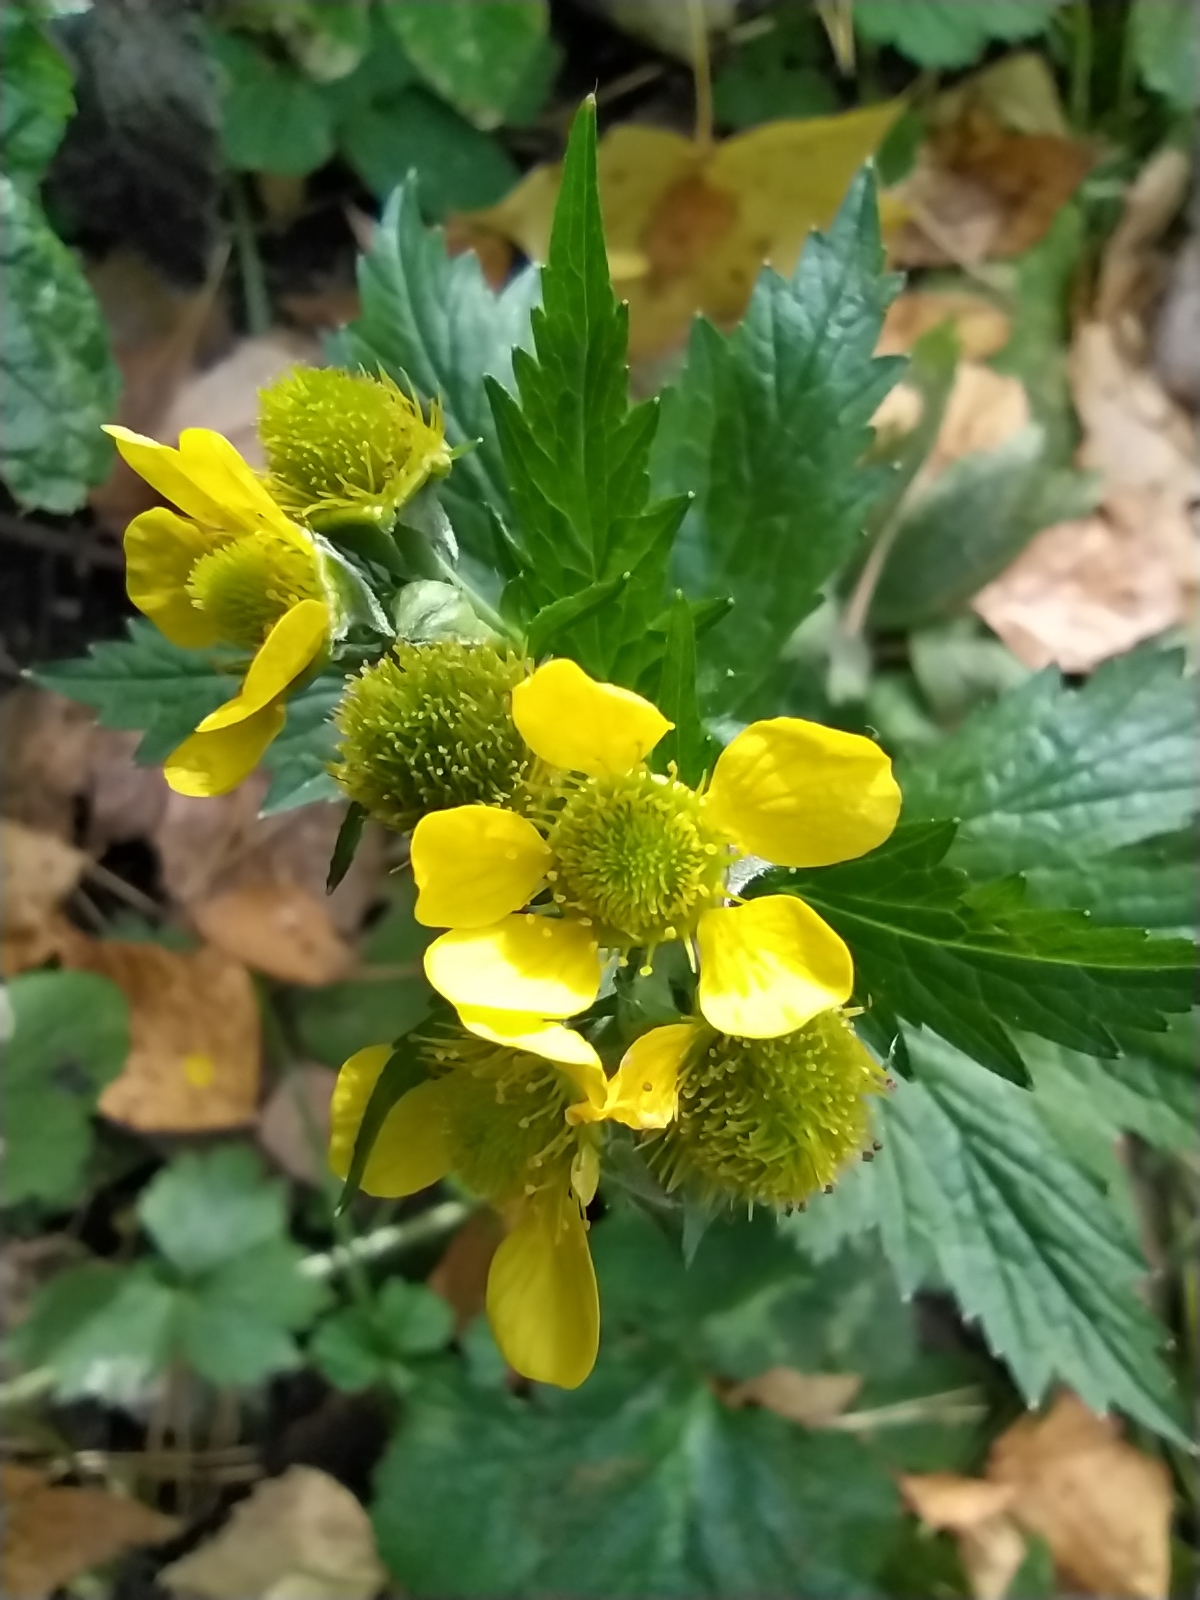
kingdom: Plantae
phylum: Tracheophyta
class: Magnoliopsida
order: Rosales
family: Rosaceae
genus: Geum
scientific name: Geum macrophyllum
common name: Large-leaved avens
